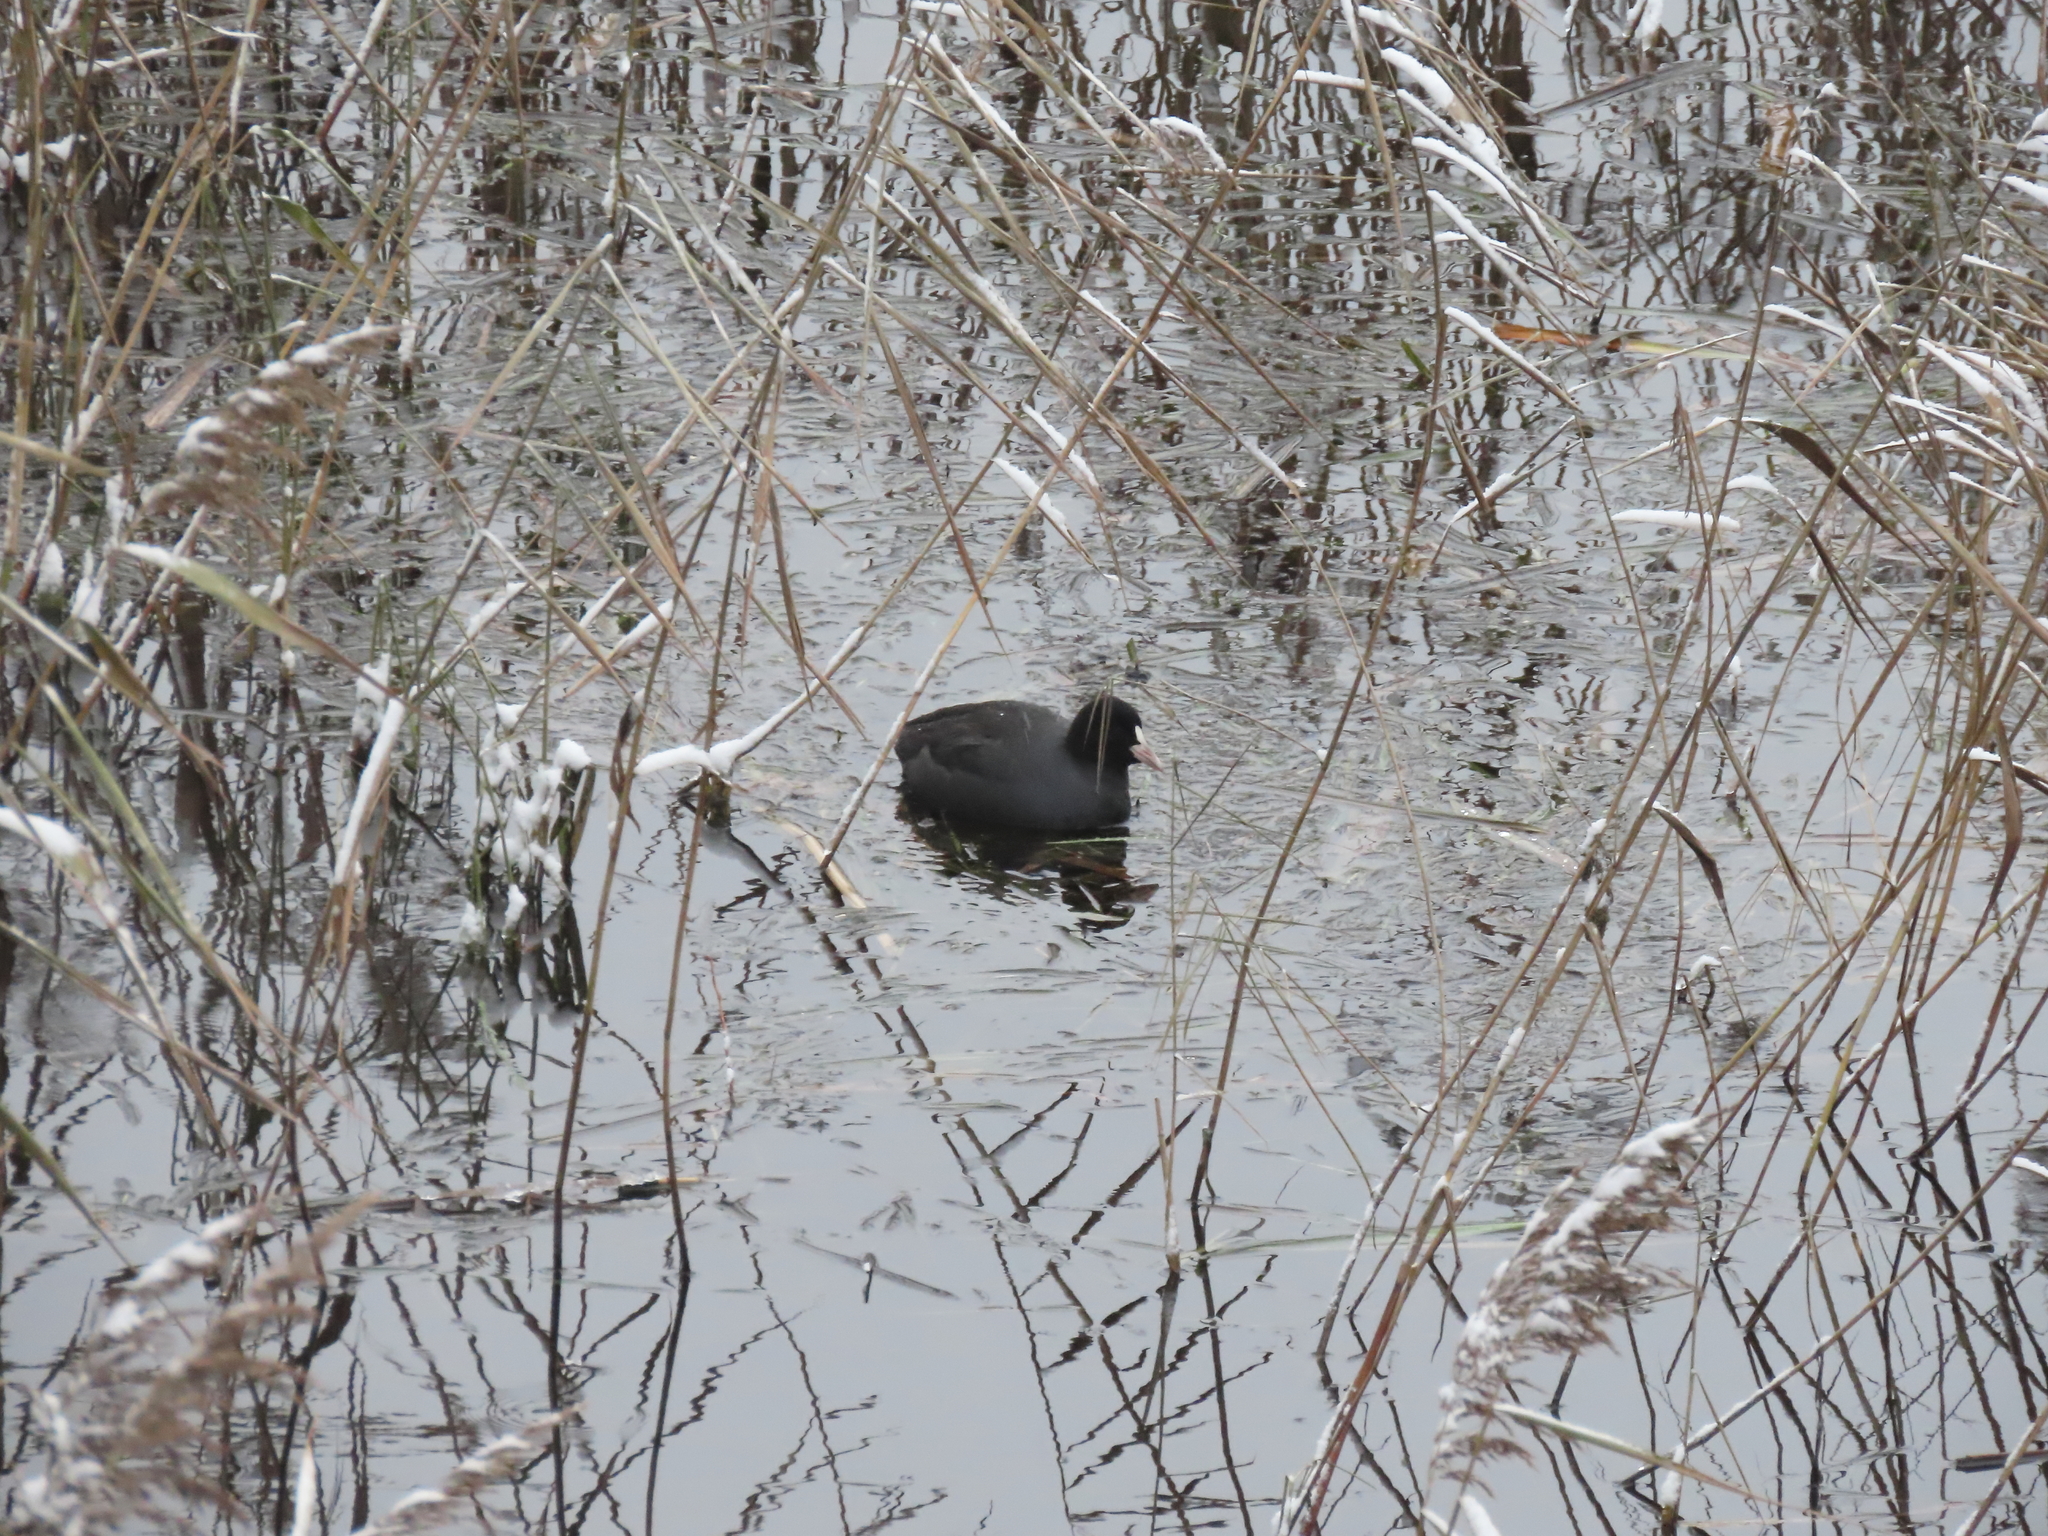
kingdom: Animalia
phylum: Chordata
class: Aves
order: Gruiformes
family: Rallidae
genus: Fulica
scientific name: Fulica atra
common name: Eurasian coot
